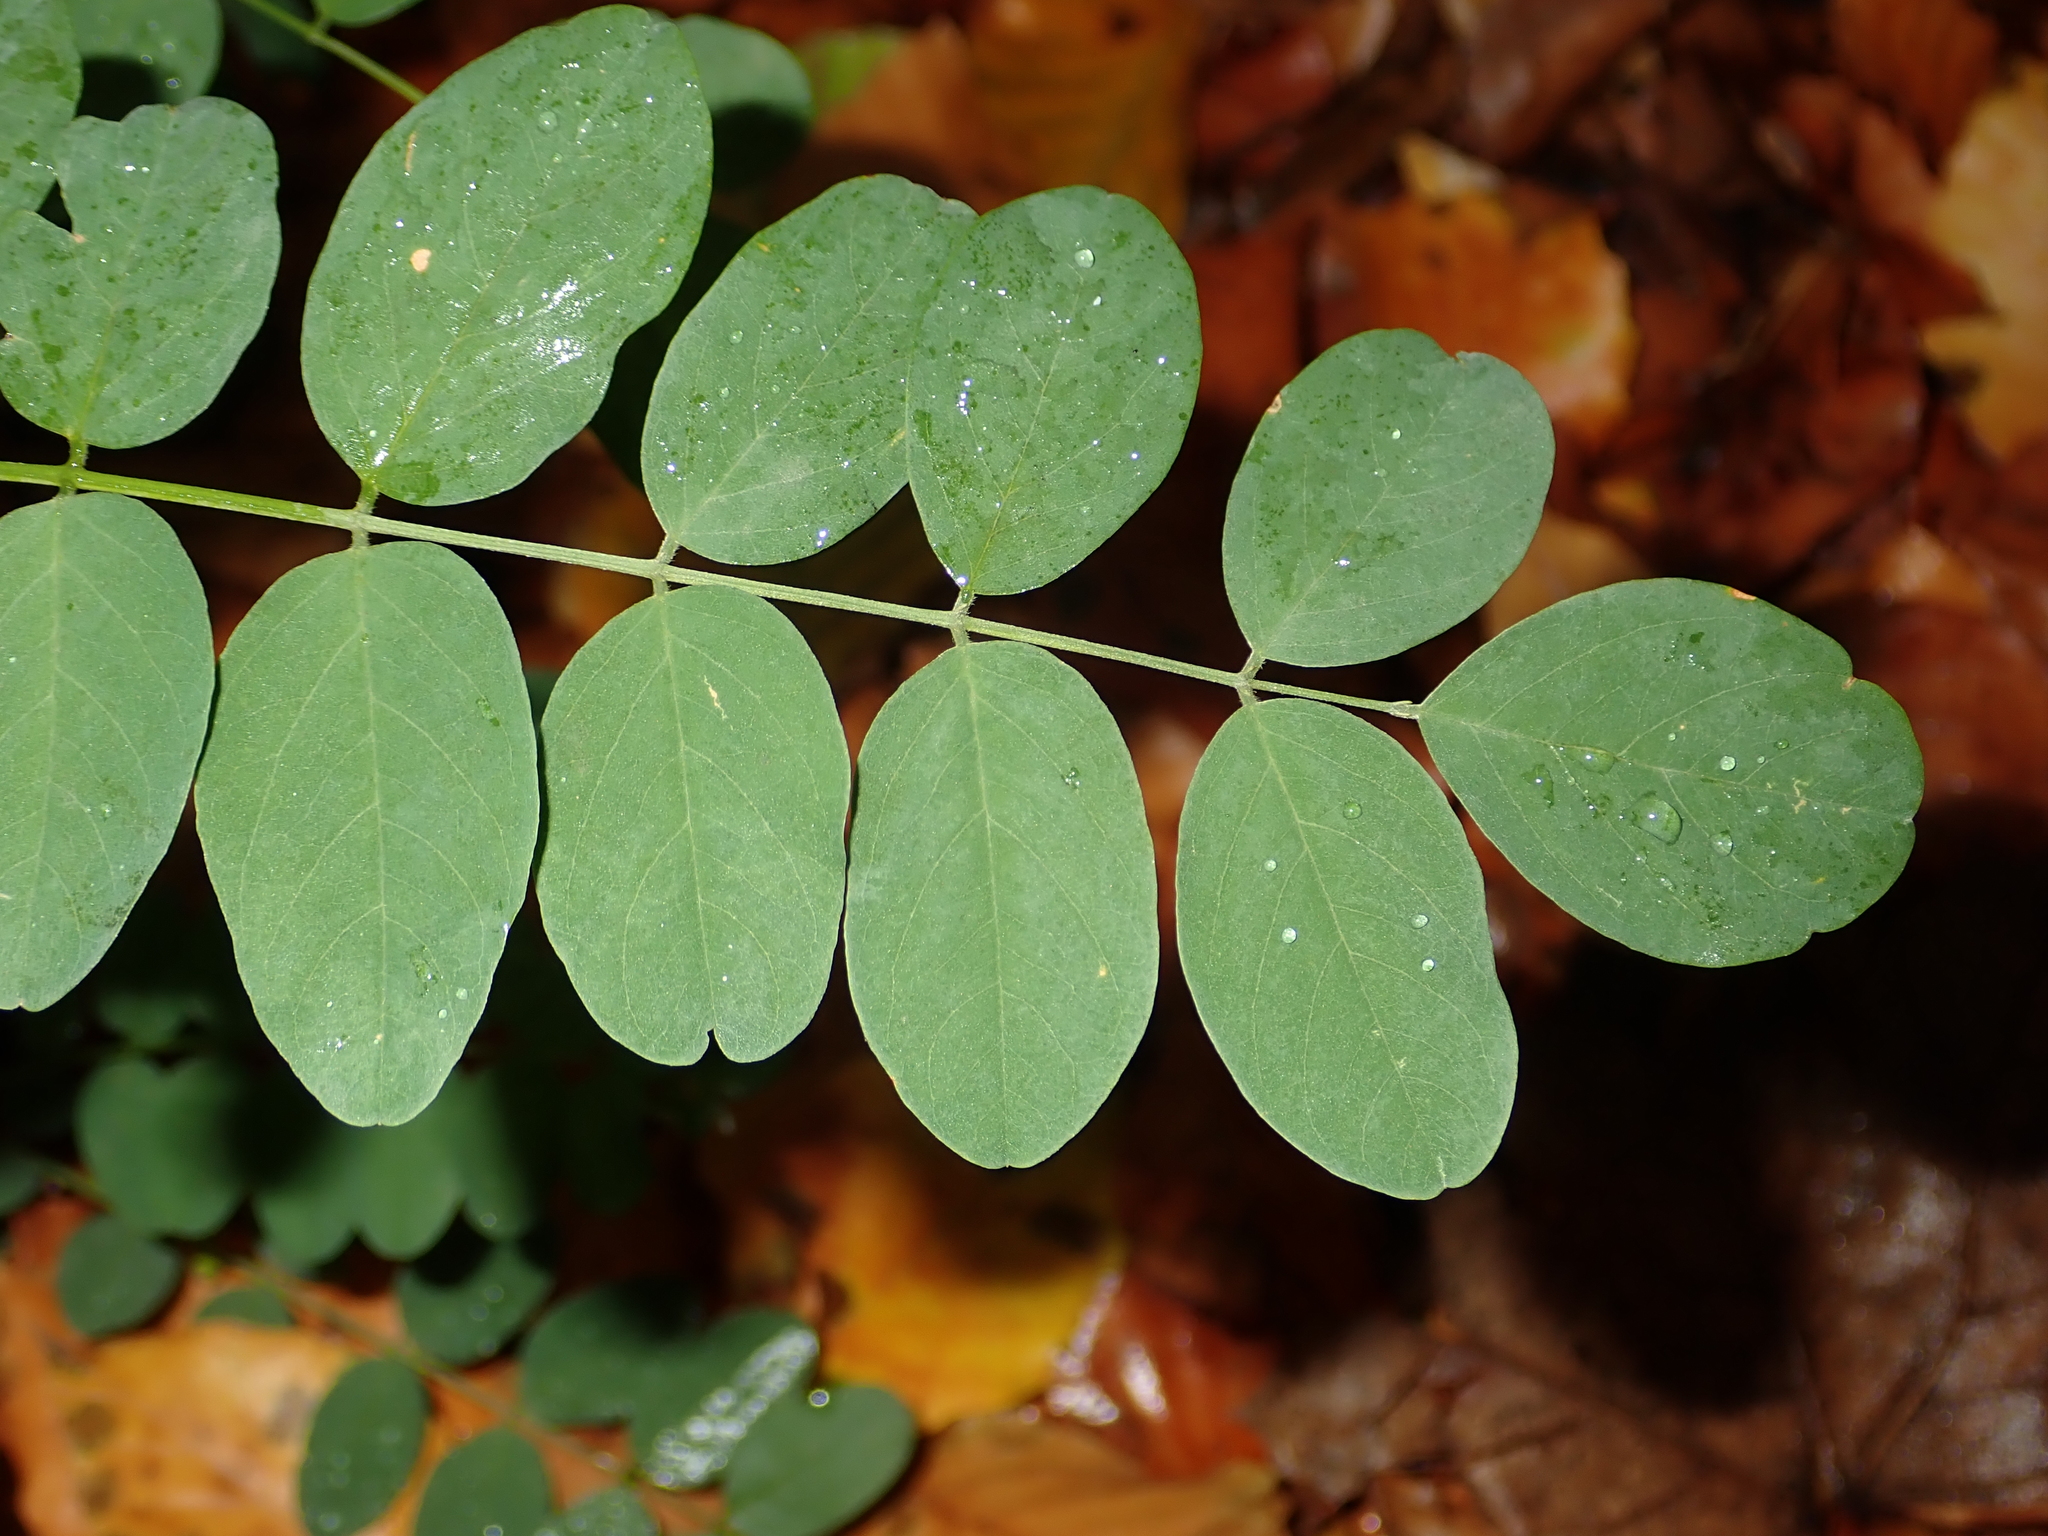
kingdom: Plantae
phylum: Tracheophyta
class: Magnoliopsida
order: Fabales
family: Fabaceae
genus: Robinia
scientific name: Robinia pseudoacacia
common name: Black locust
